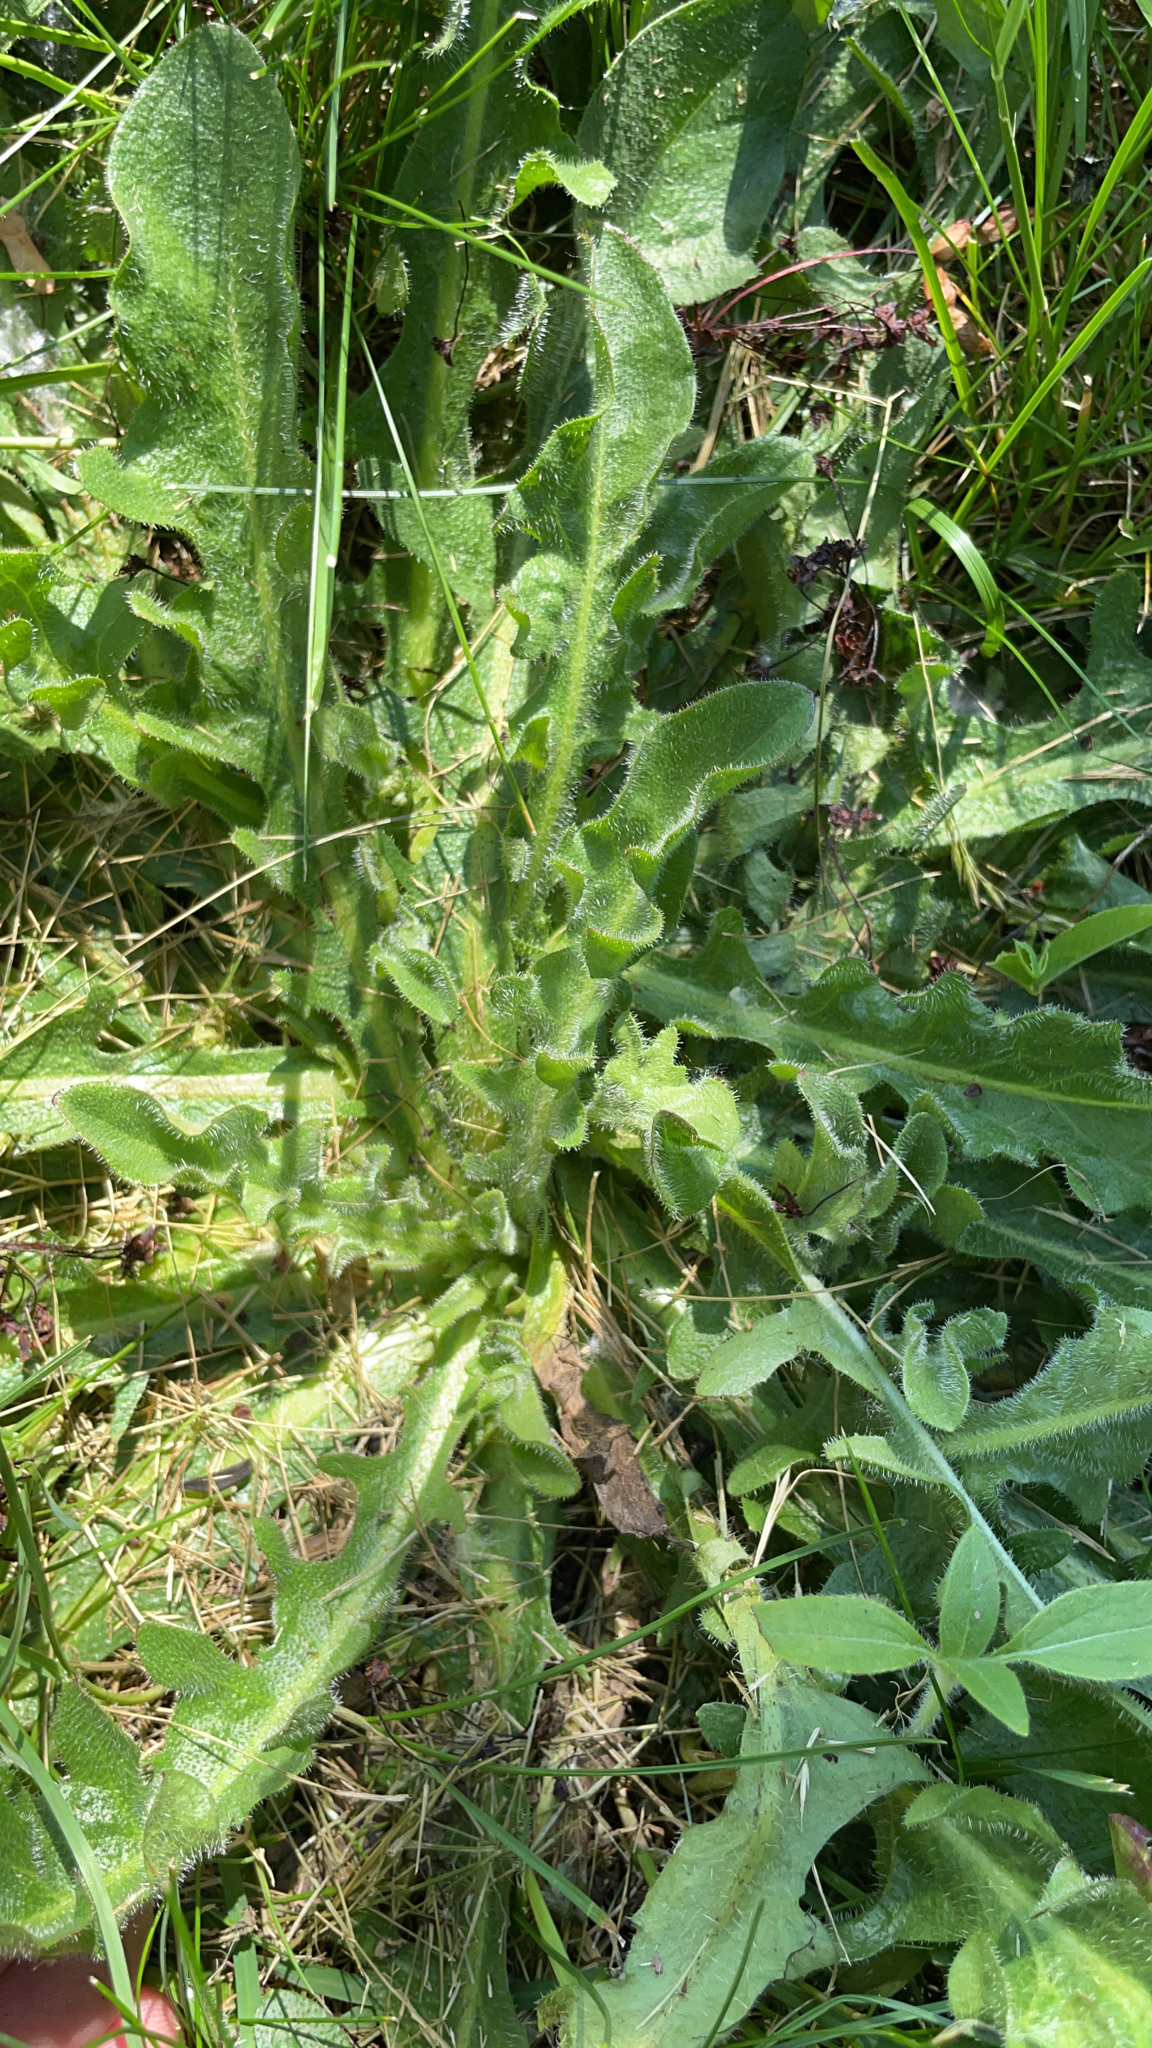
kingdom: Plantae
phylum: Tracheophyta
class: Magnoliopsida
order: Asterales
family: Asteraceae
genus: Hypochaeris
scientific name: Hypochaeris radicata
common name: Flatweed
